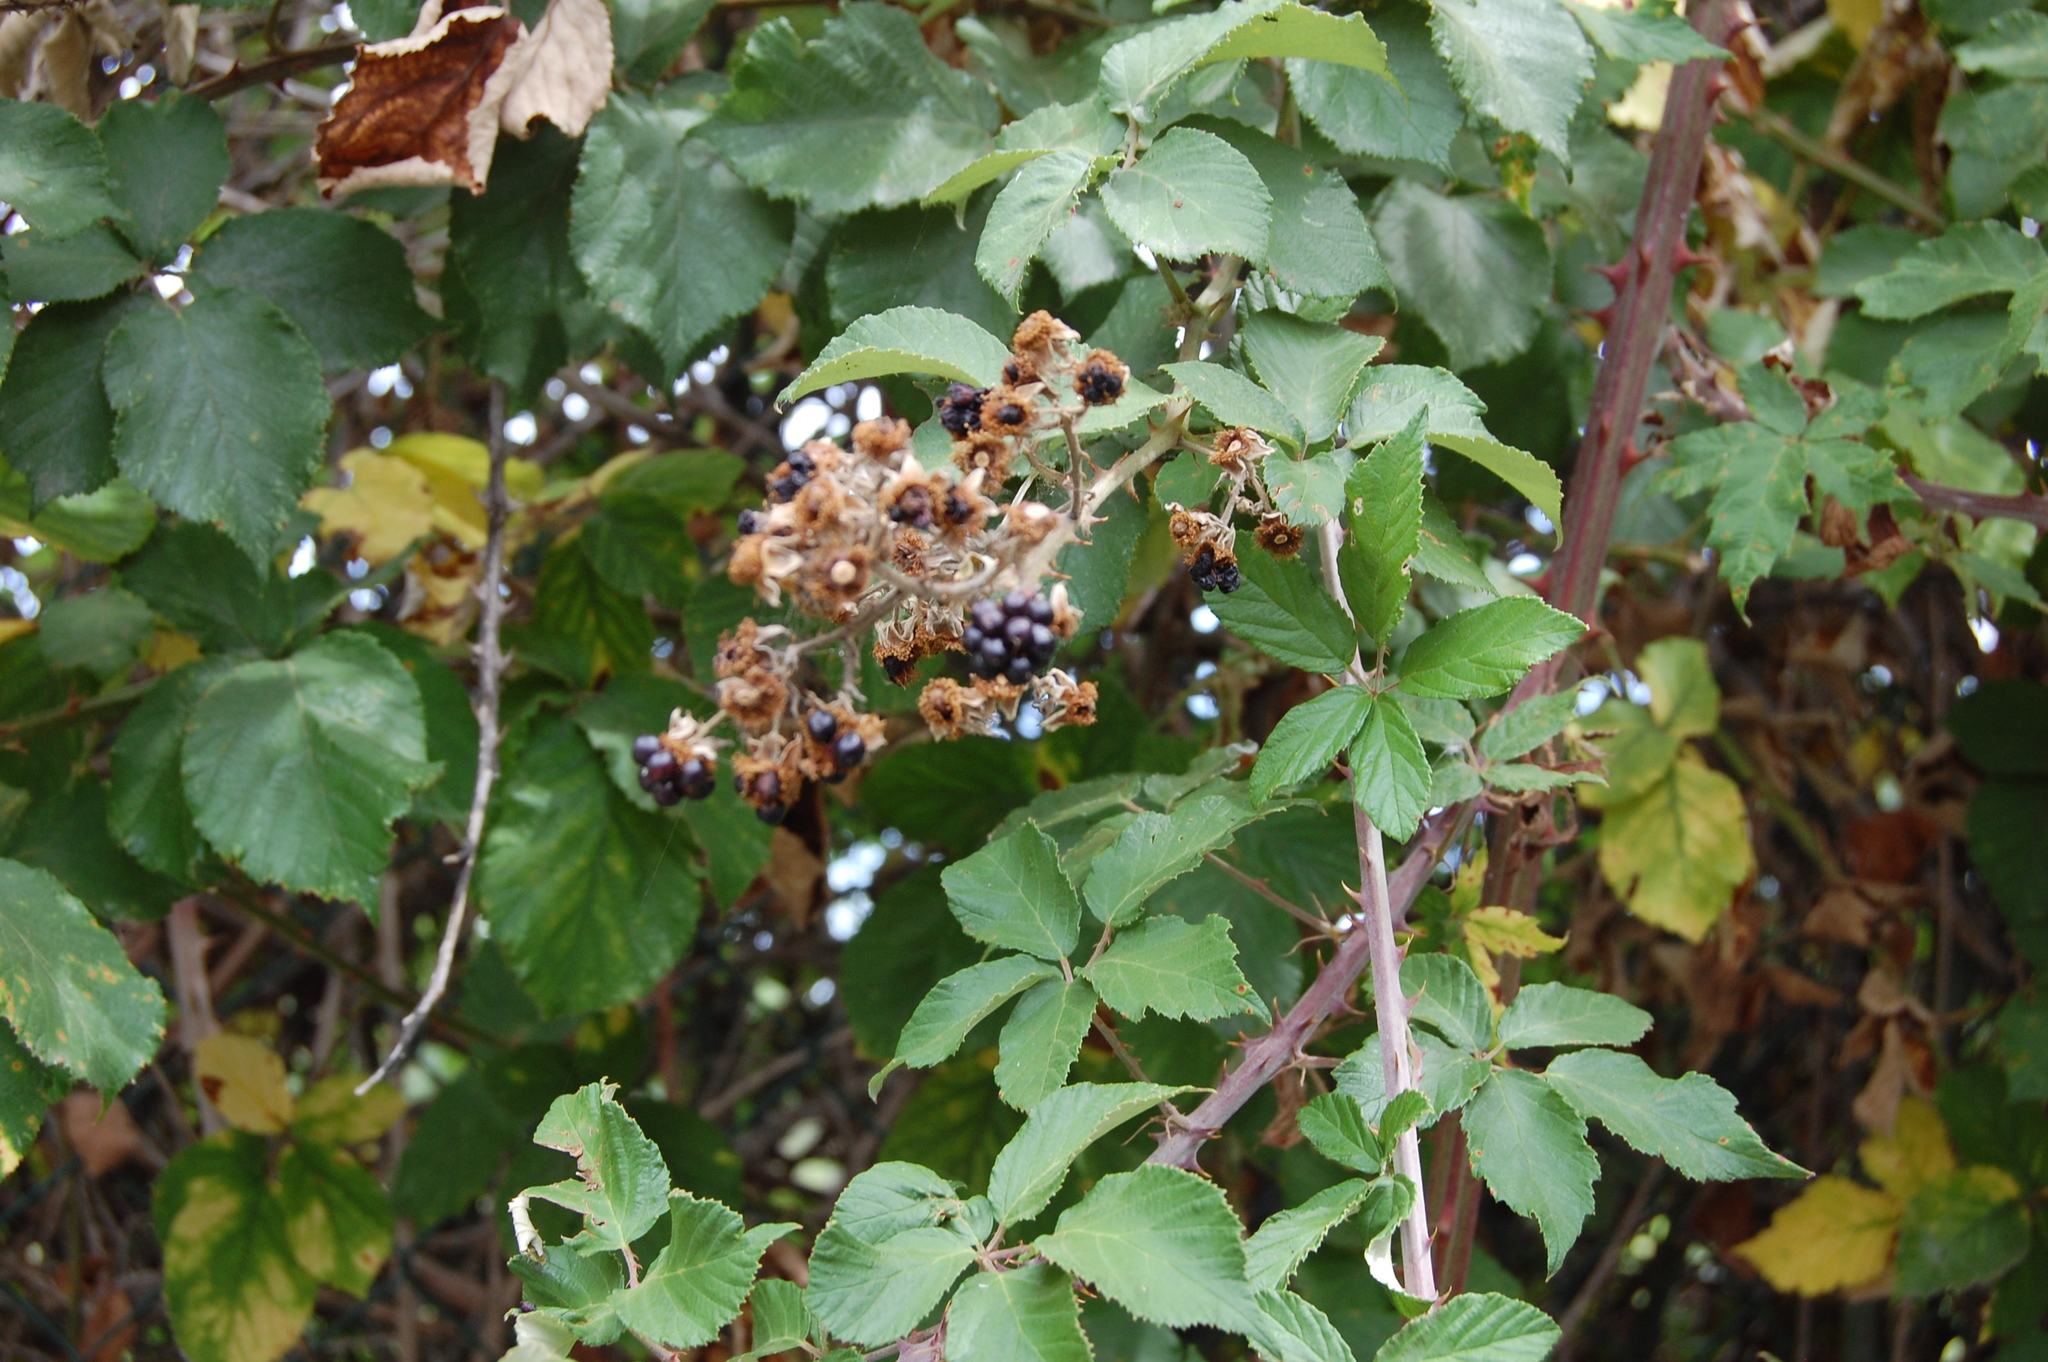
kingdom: Plantae
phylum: Tracheophyta
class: Magnoliopsida
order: Rosales
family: Rosaceae
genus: Rubus
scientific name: Rubus ulmifolius
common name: Elmleaf blackberry
